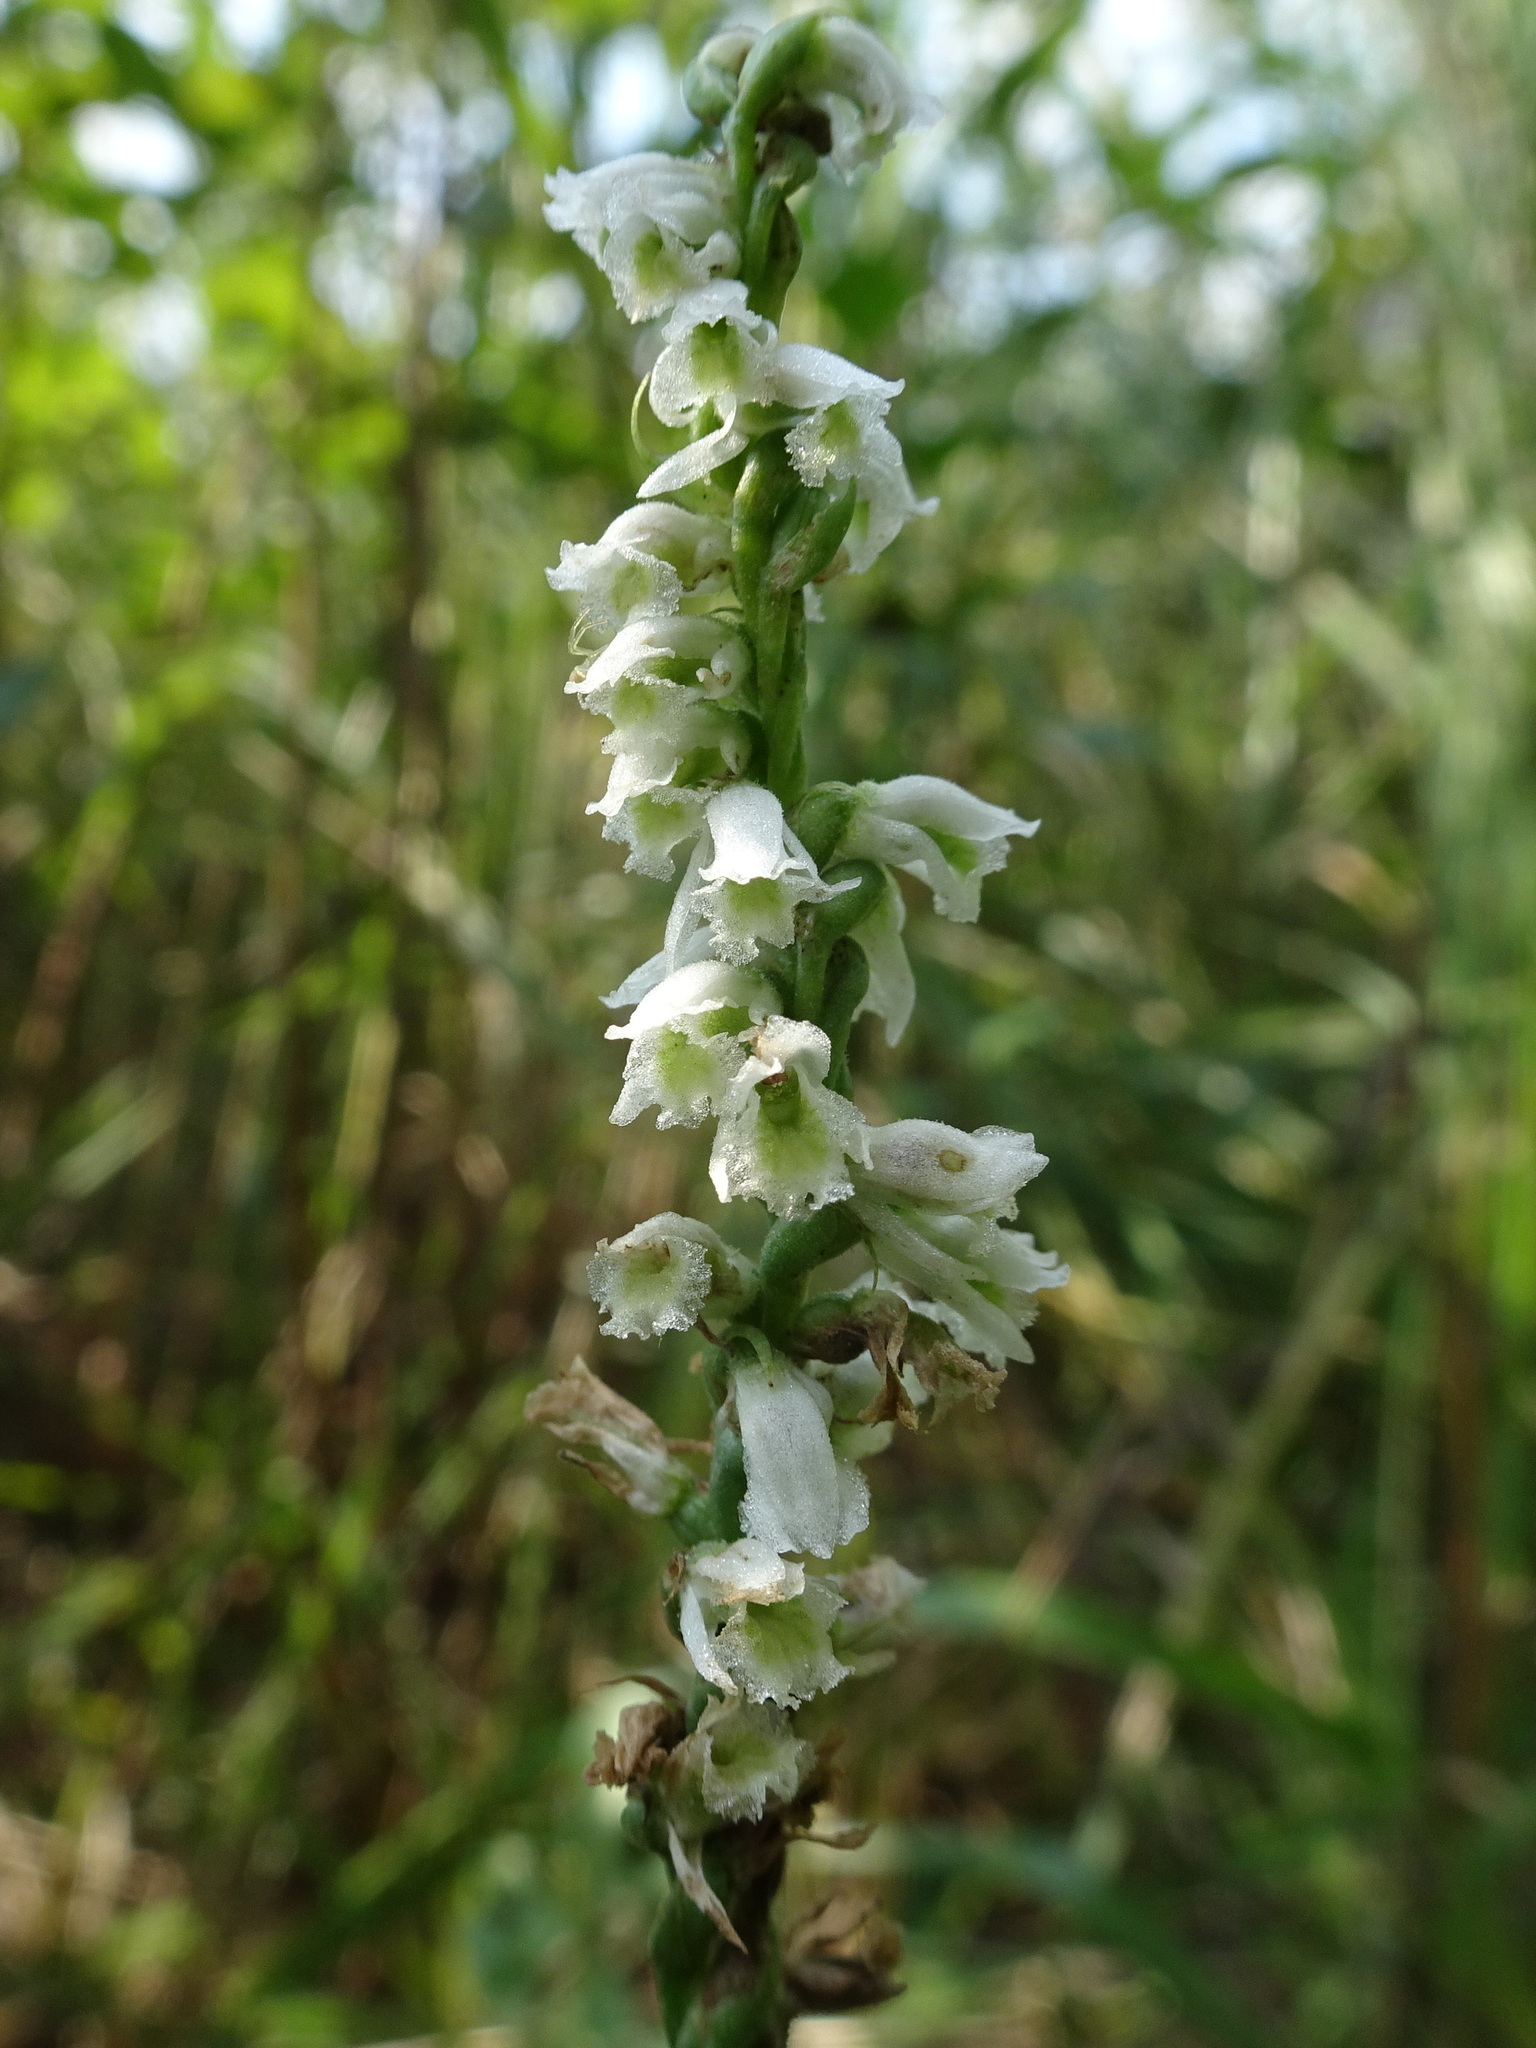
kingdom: Plantae
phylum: Tracheophyta
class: Liliopsida
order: Asparagales
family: Orchidaceae
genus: Spiranthes
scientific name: Spiranthes lacera
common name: Northern slender ladies'-tresses
